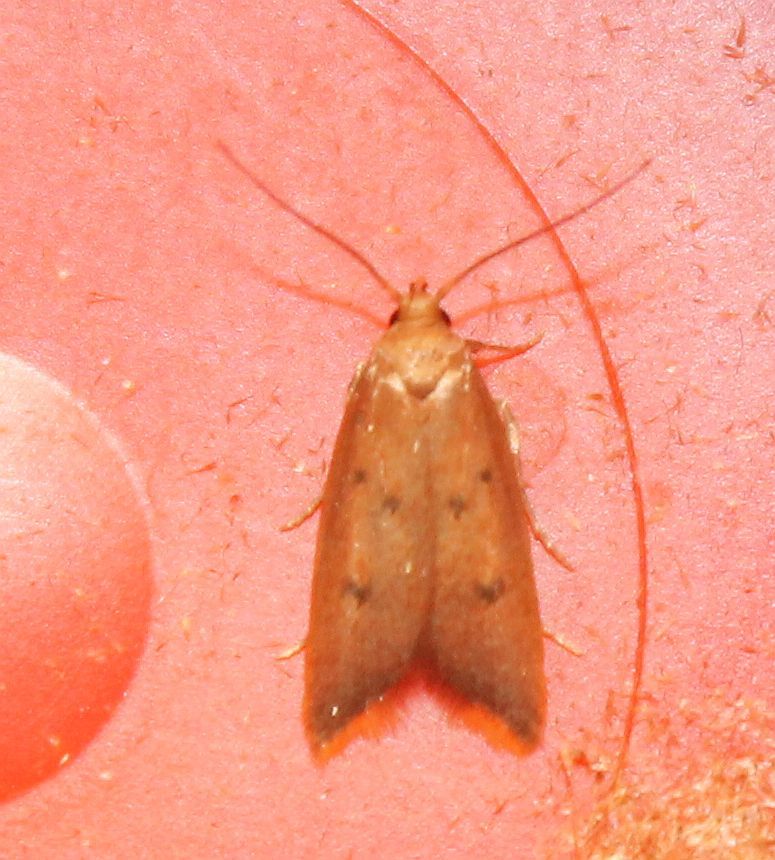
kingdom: Animalia
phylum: Arthropoda
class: Insecta
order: Lepidoptera
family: Oecophoridae
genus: Tachystola
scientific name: Tachystola acroxantha
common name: Ruddy streak
